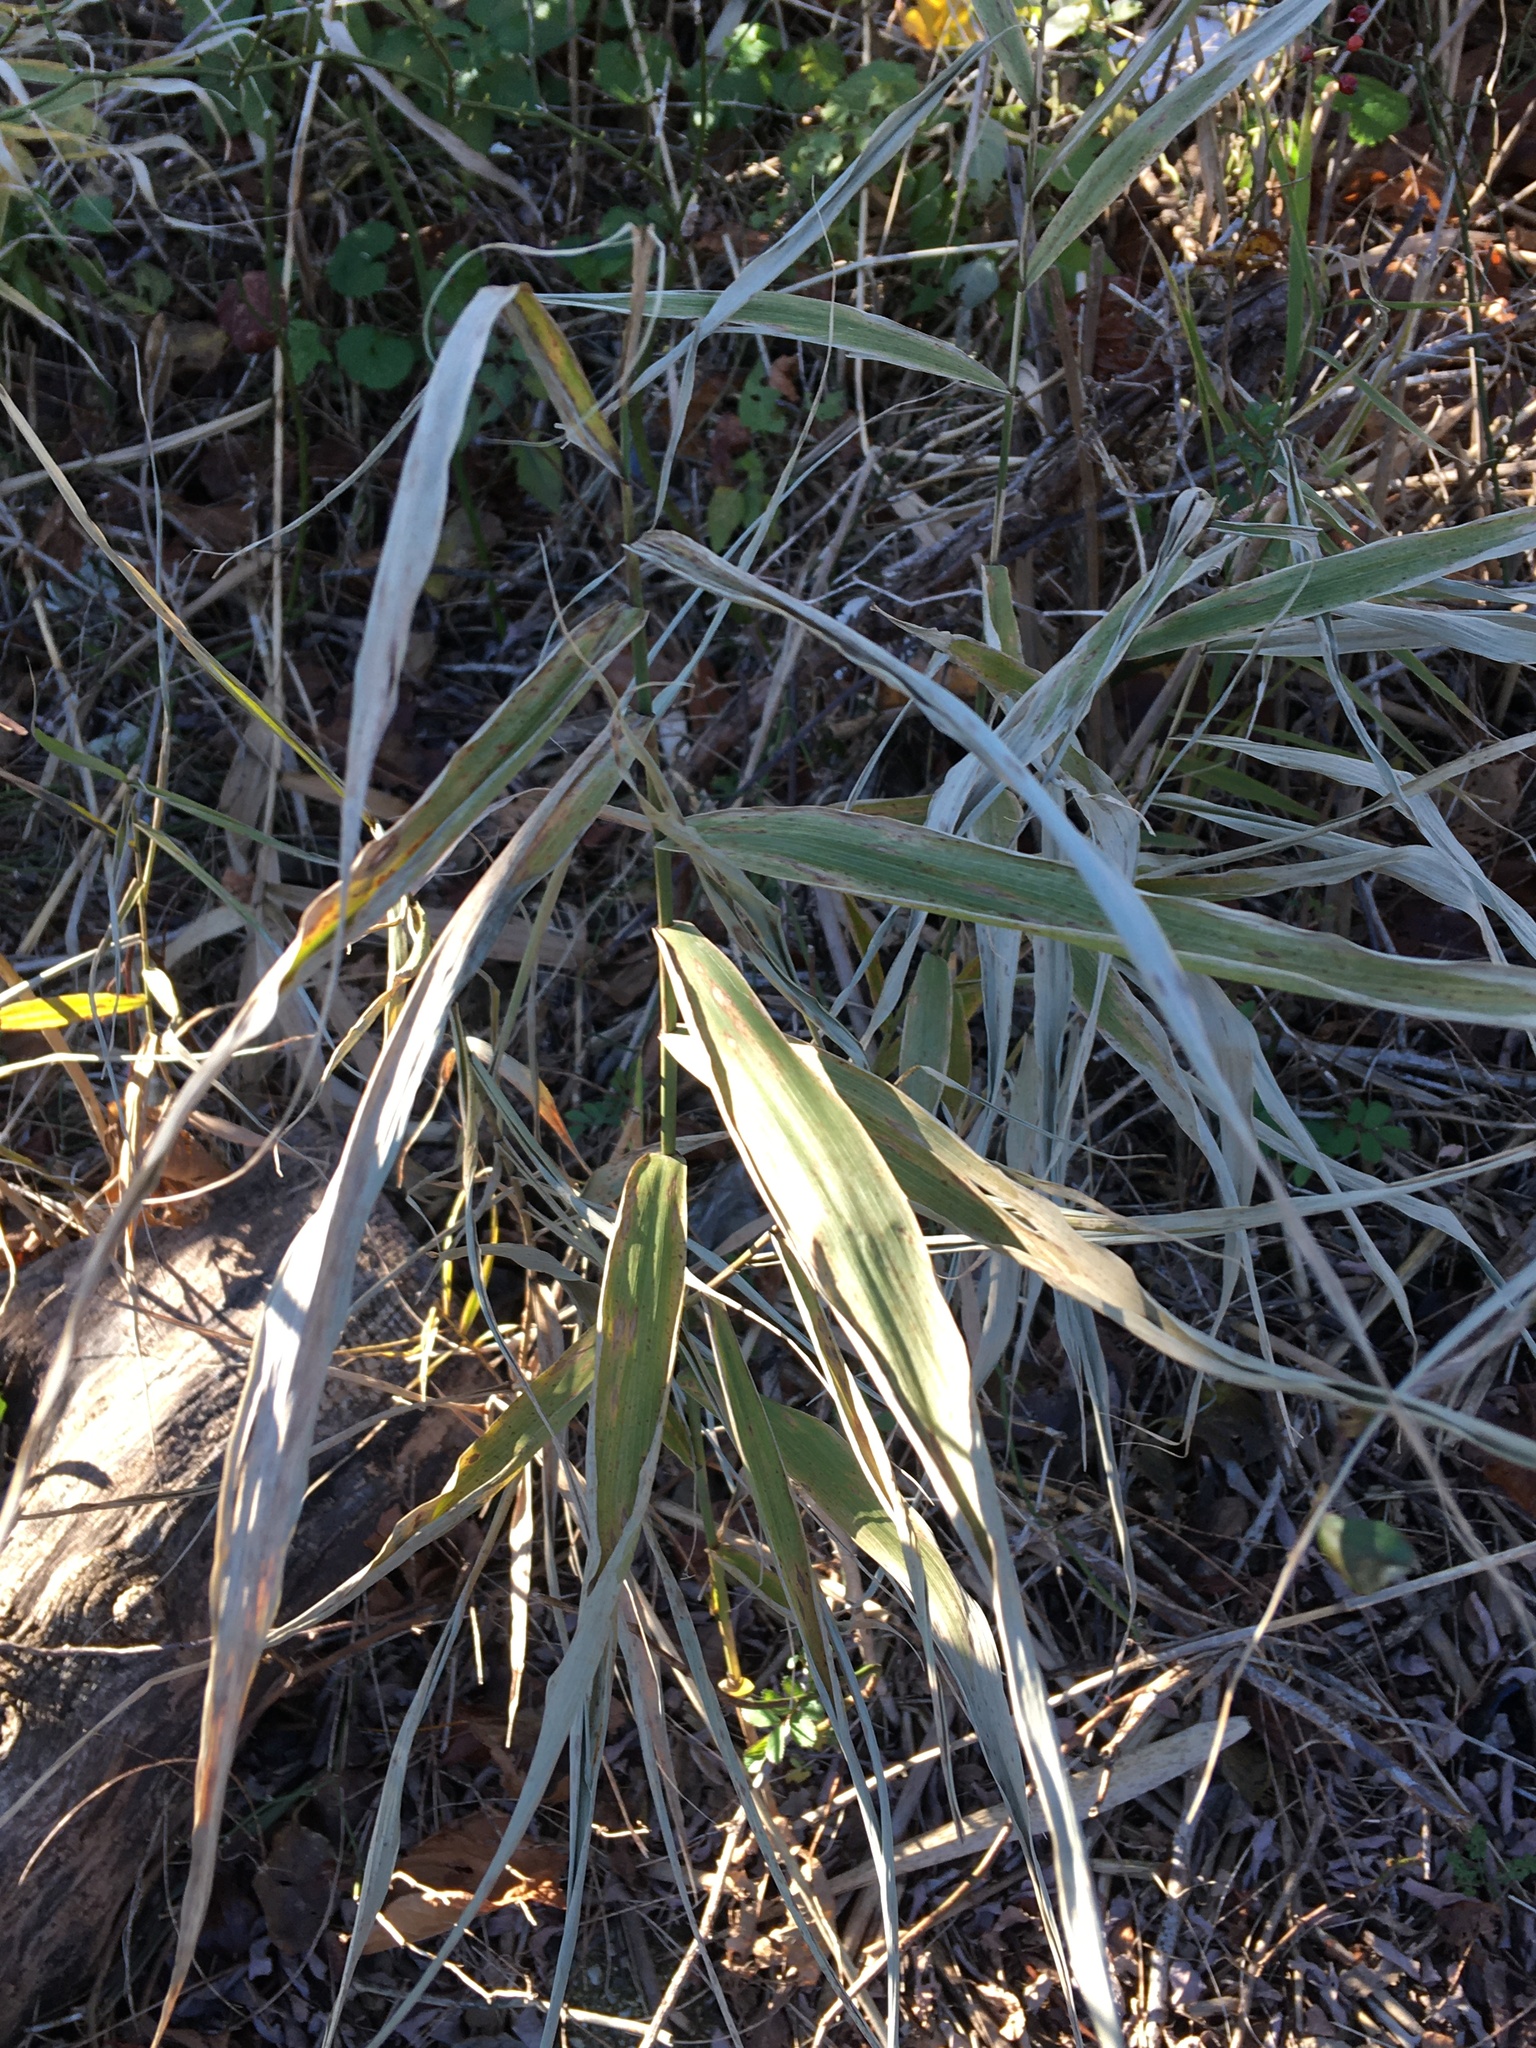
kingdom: Plantae
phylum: Tracheophyta
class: Liliopsida
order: Poales
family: Poaceae
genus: Phragmites
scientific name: Phragmites australis
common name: Common reed
